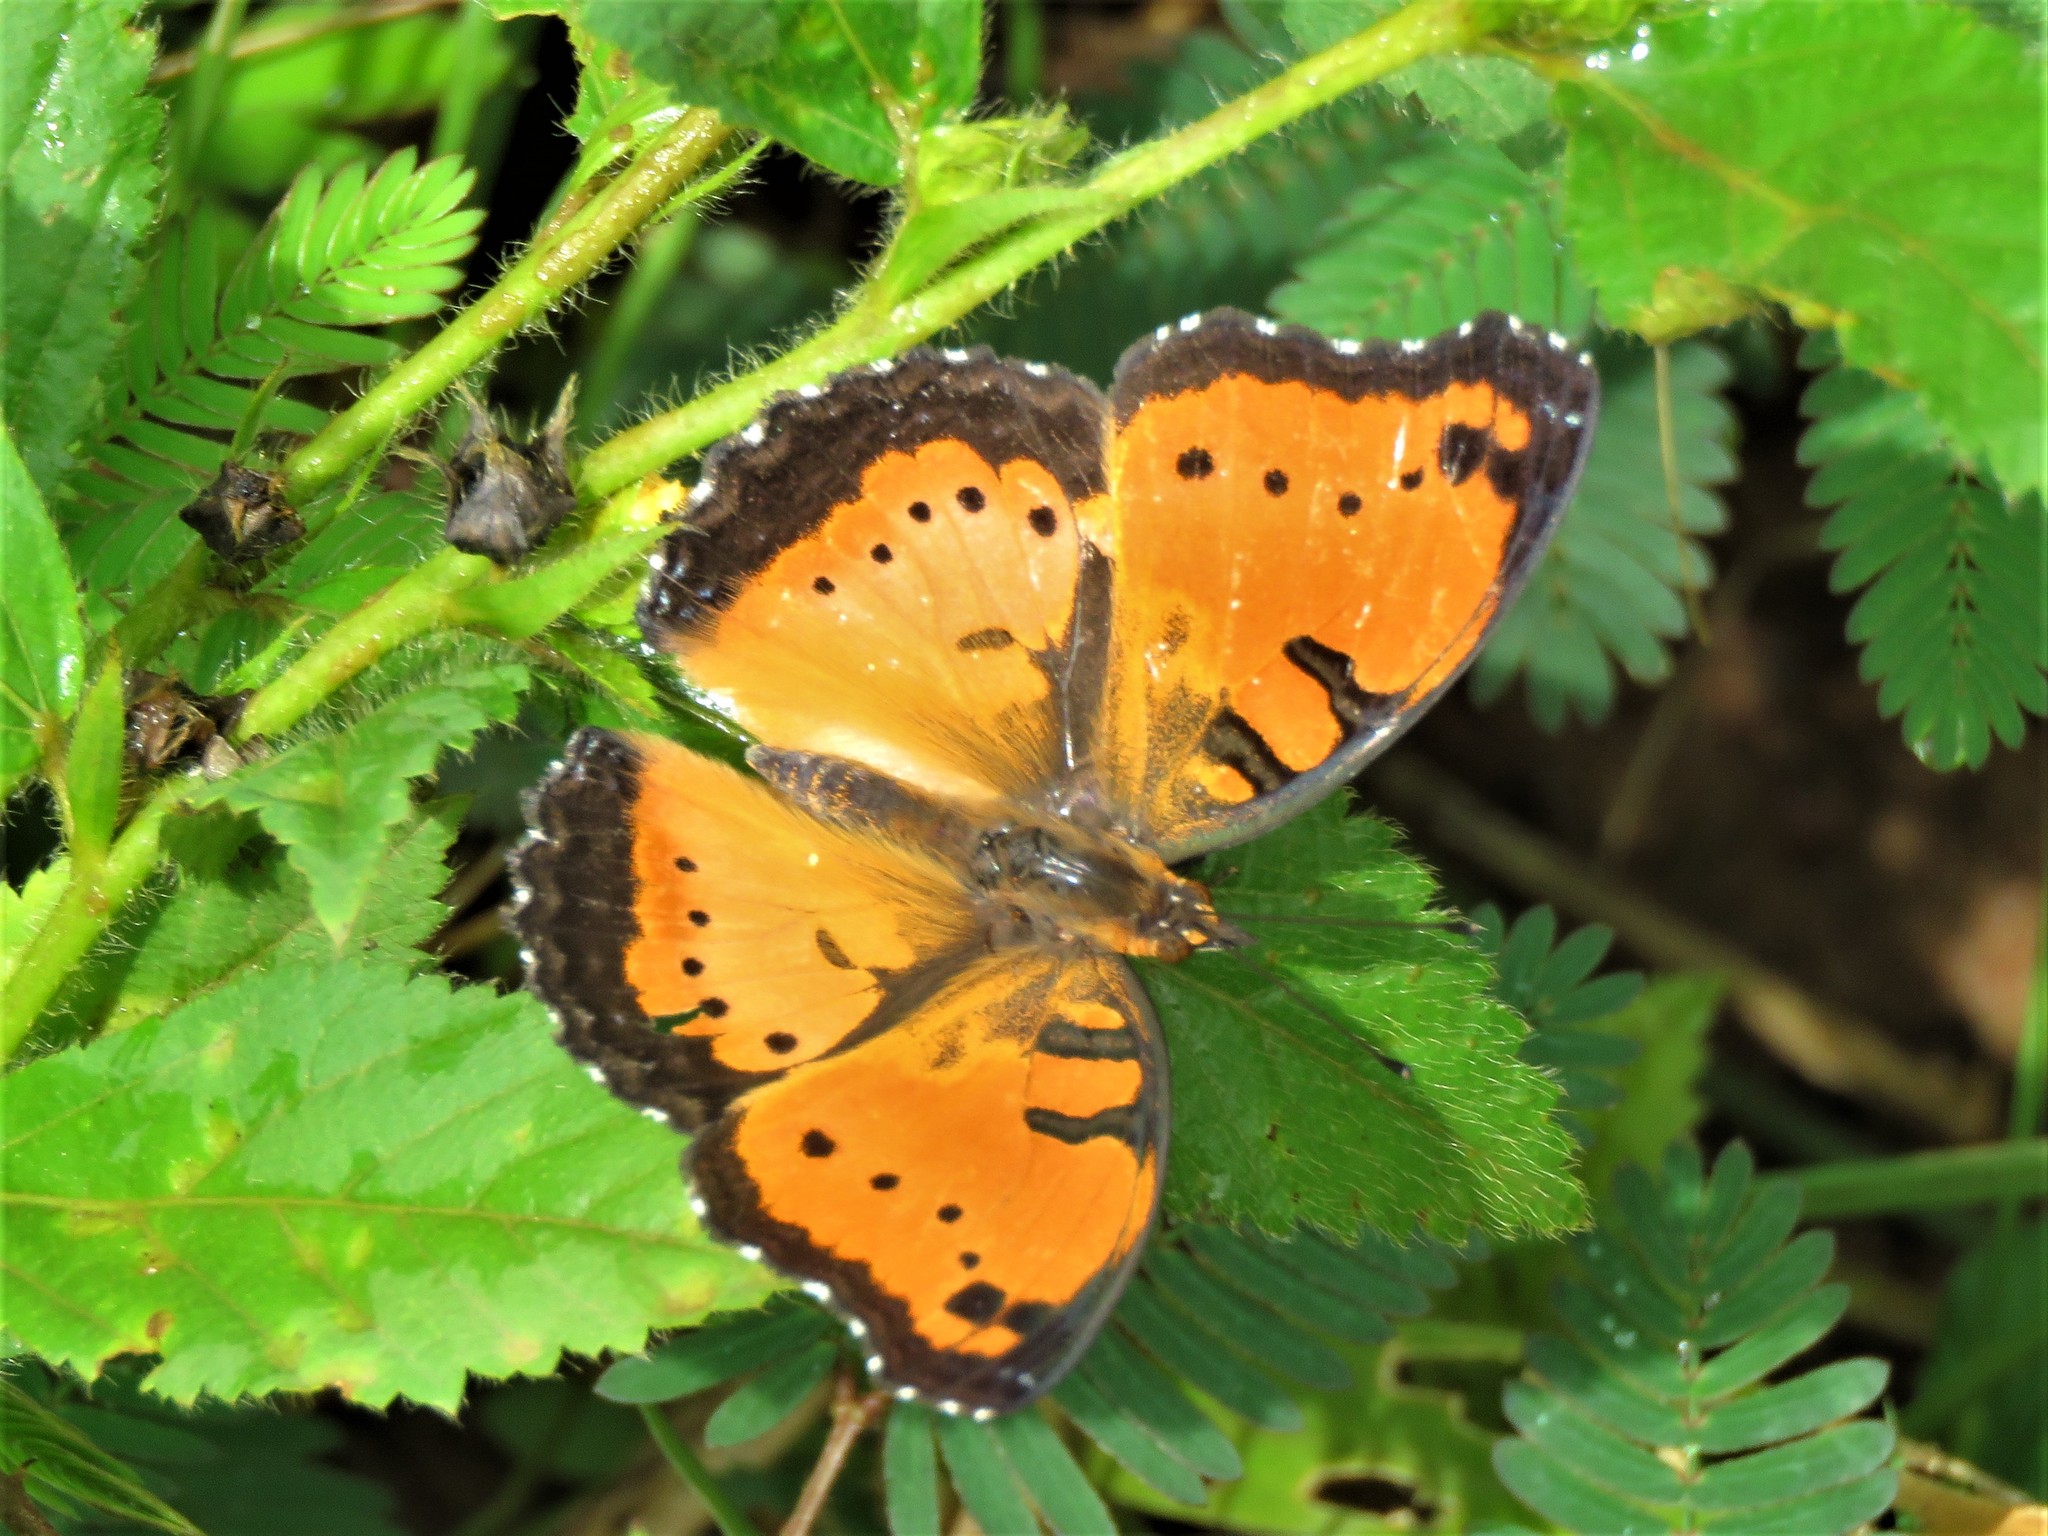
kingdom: Animalia
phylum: Arthropoda
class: Insecta
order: Lepidoptera
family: Nymphalidae
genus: Precis
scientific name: Precis octavia
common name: Gaudy commodore
